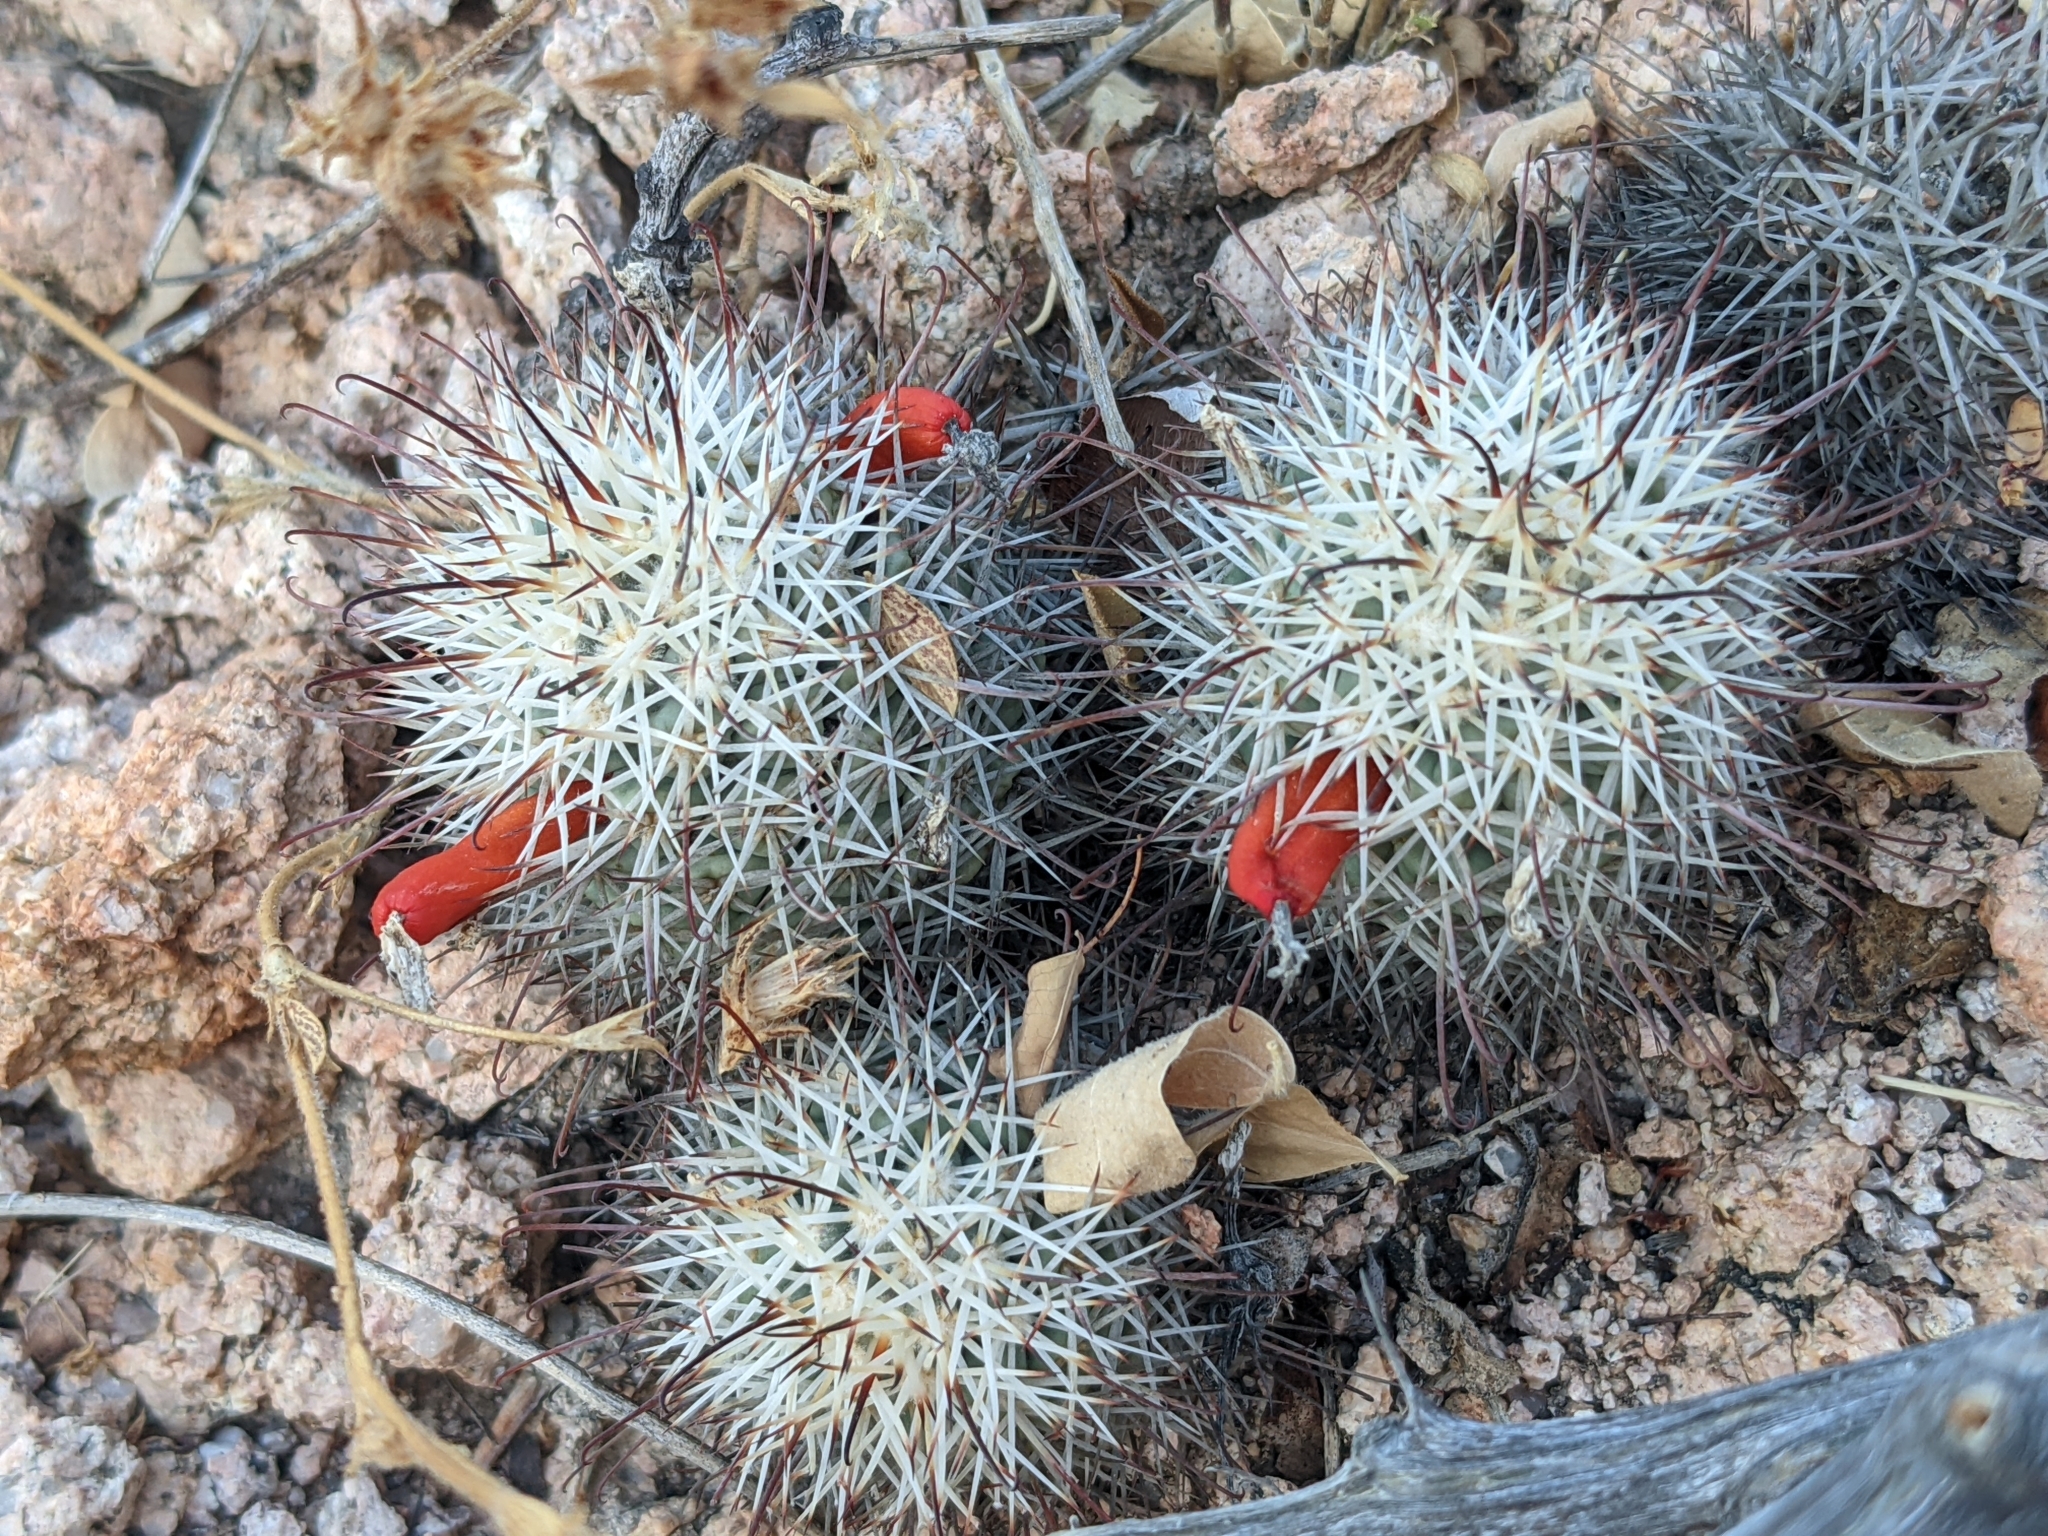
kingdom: Plantae
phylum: Tracheophyta
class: Magnoliopsida
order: Caryophyllales
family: Cactaceae
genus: Cochemiea
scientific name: Cochemiea schumannii
